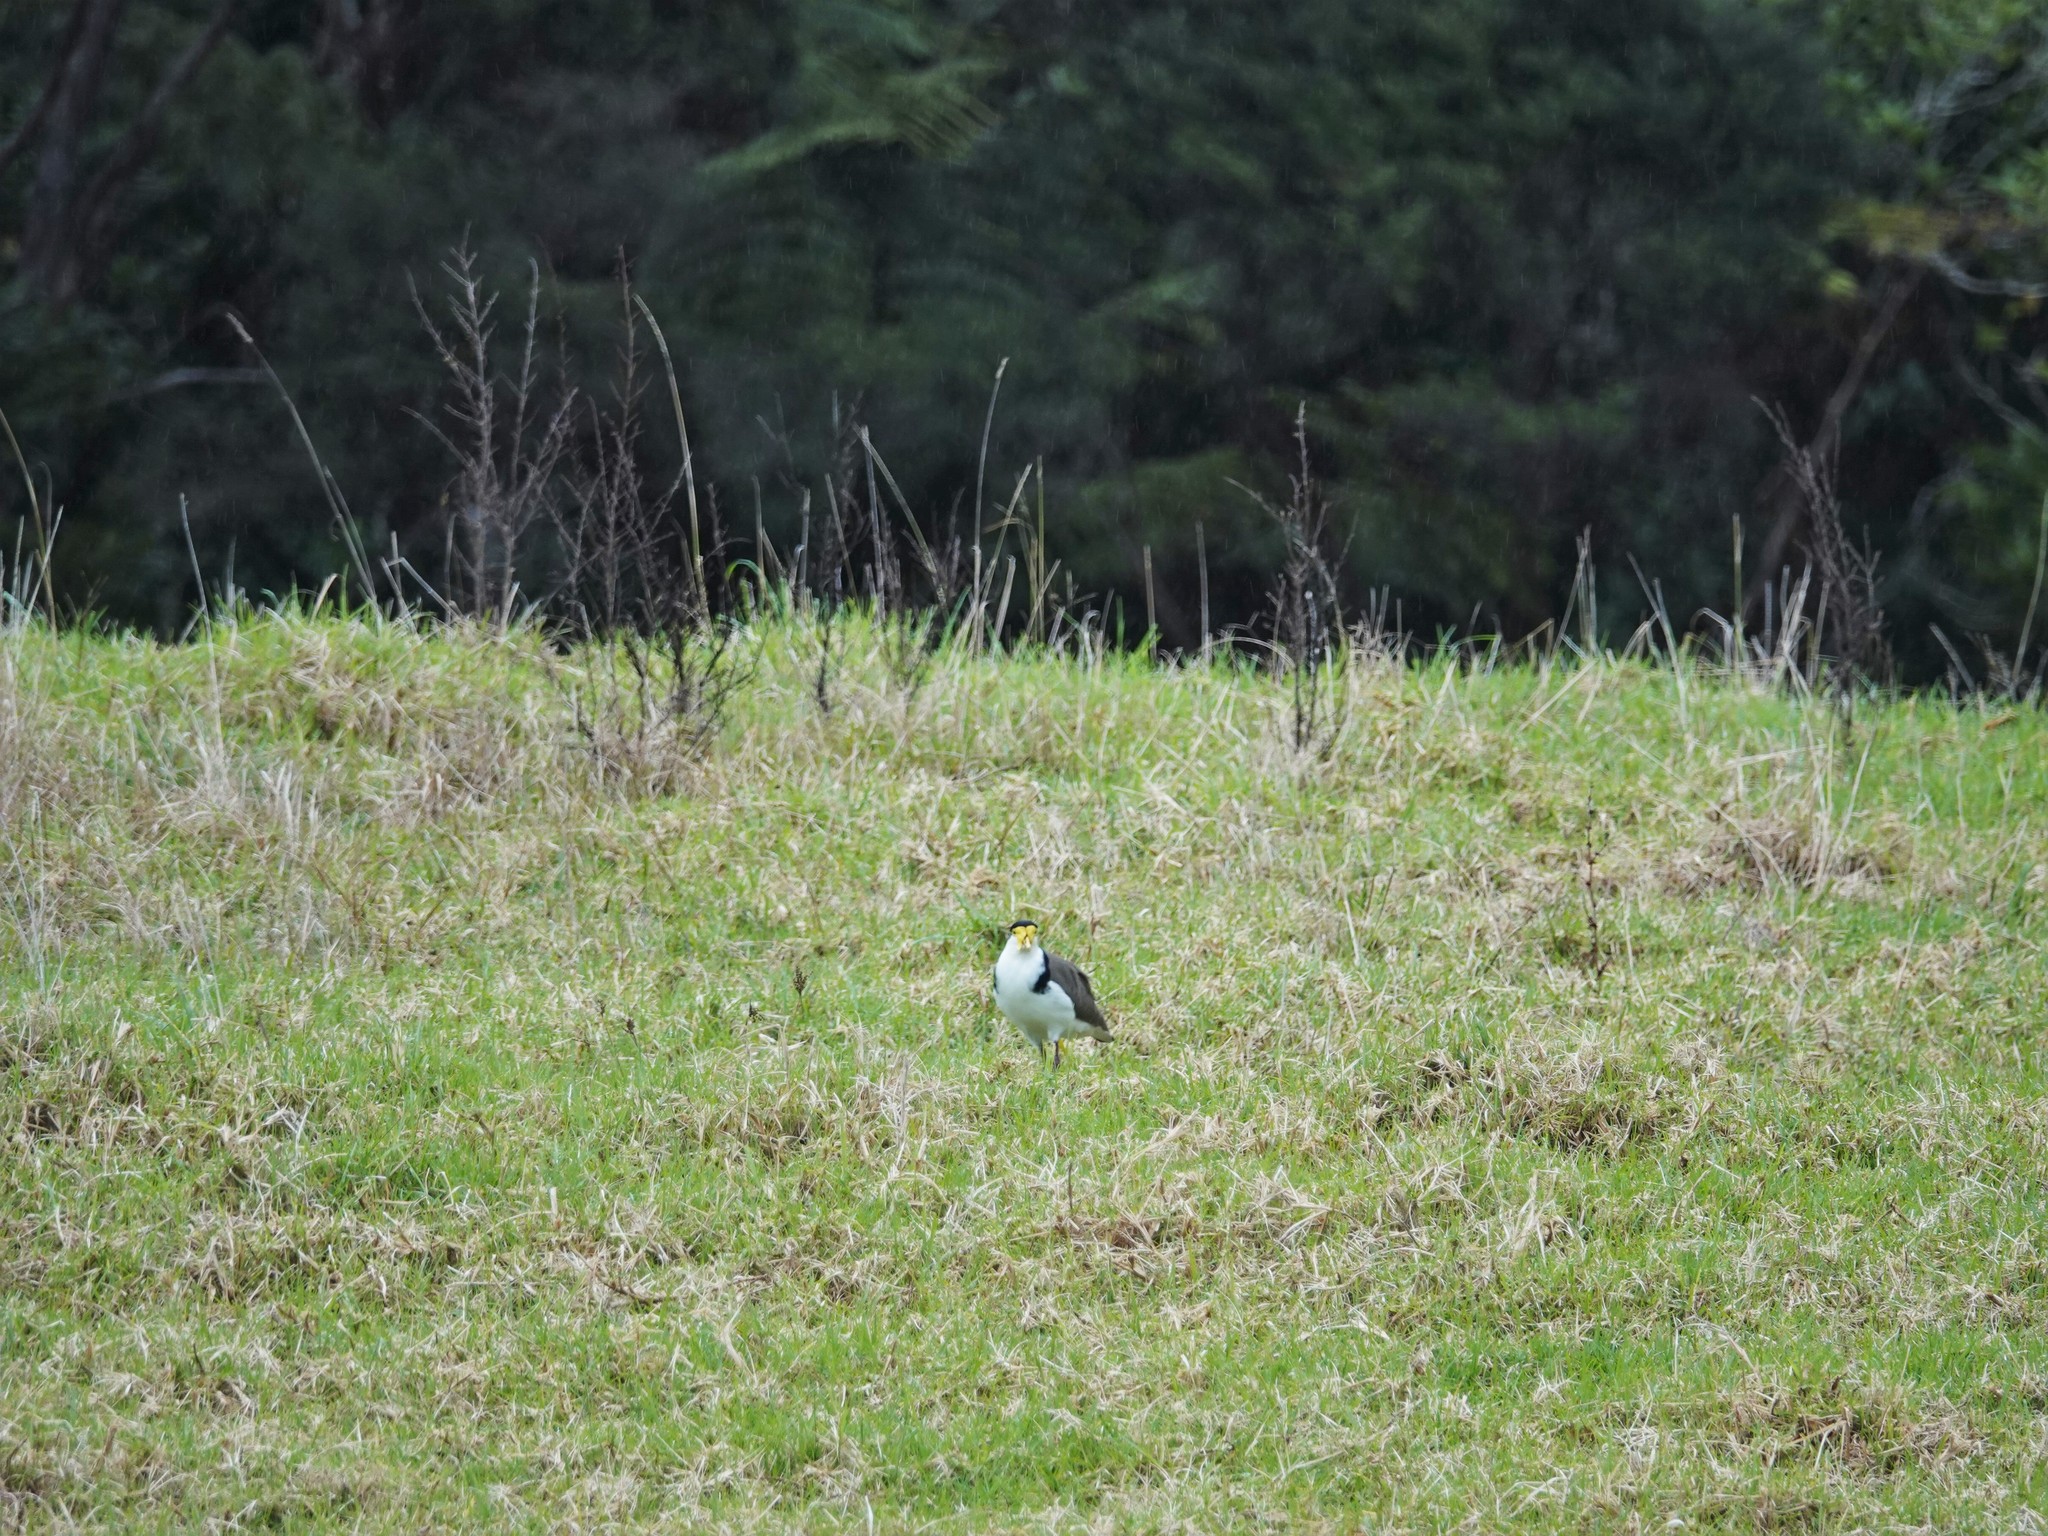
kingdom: Animalia
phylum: Chordata
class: Aves
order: Charadriiformes
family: Charadriidae
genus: Vanellus
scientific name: Vanellus miles
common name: Masked lapwing
